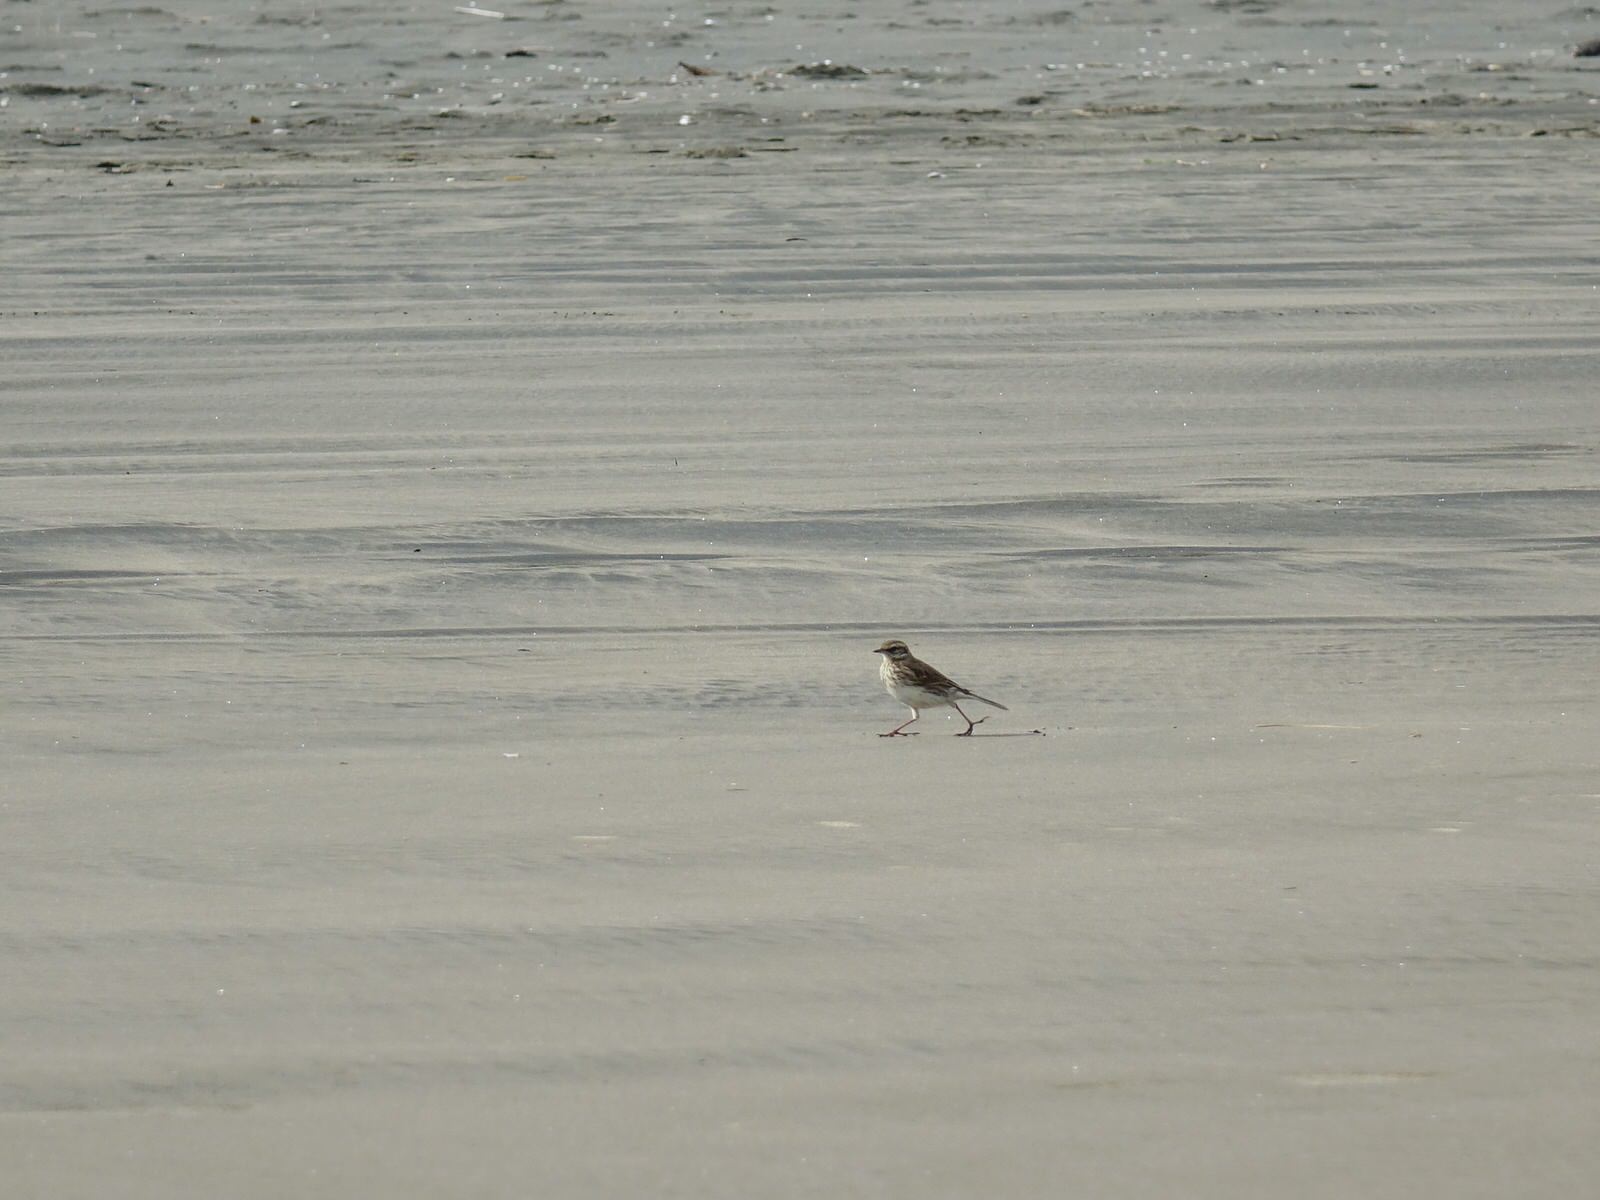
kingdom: Animalia
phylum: Chordata
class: Aves
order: Passeriformes
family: Motacillidae
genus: Anthus
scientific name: Anthus novaeseelandiae
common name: New zealand pipit
